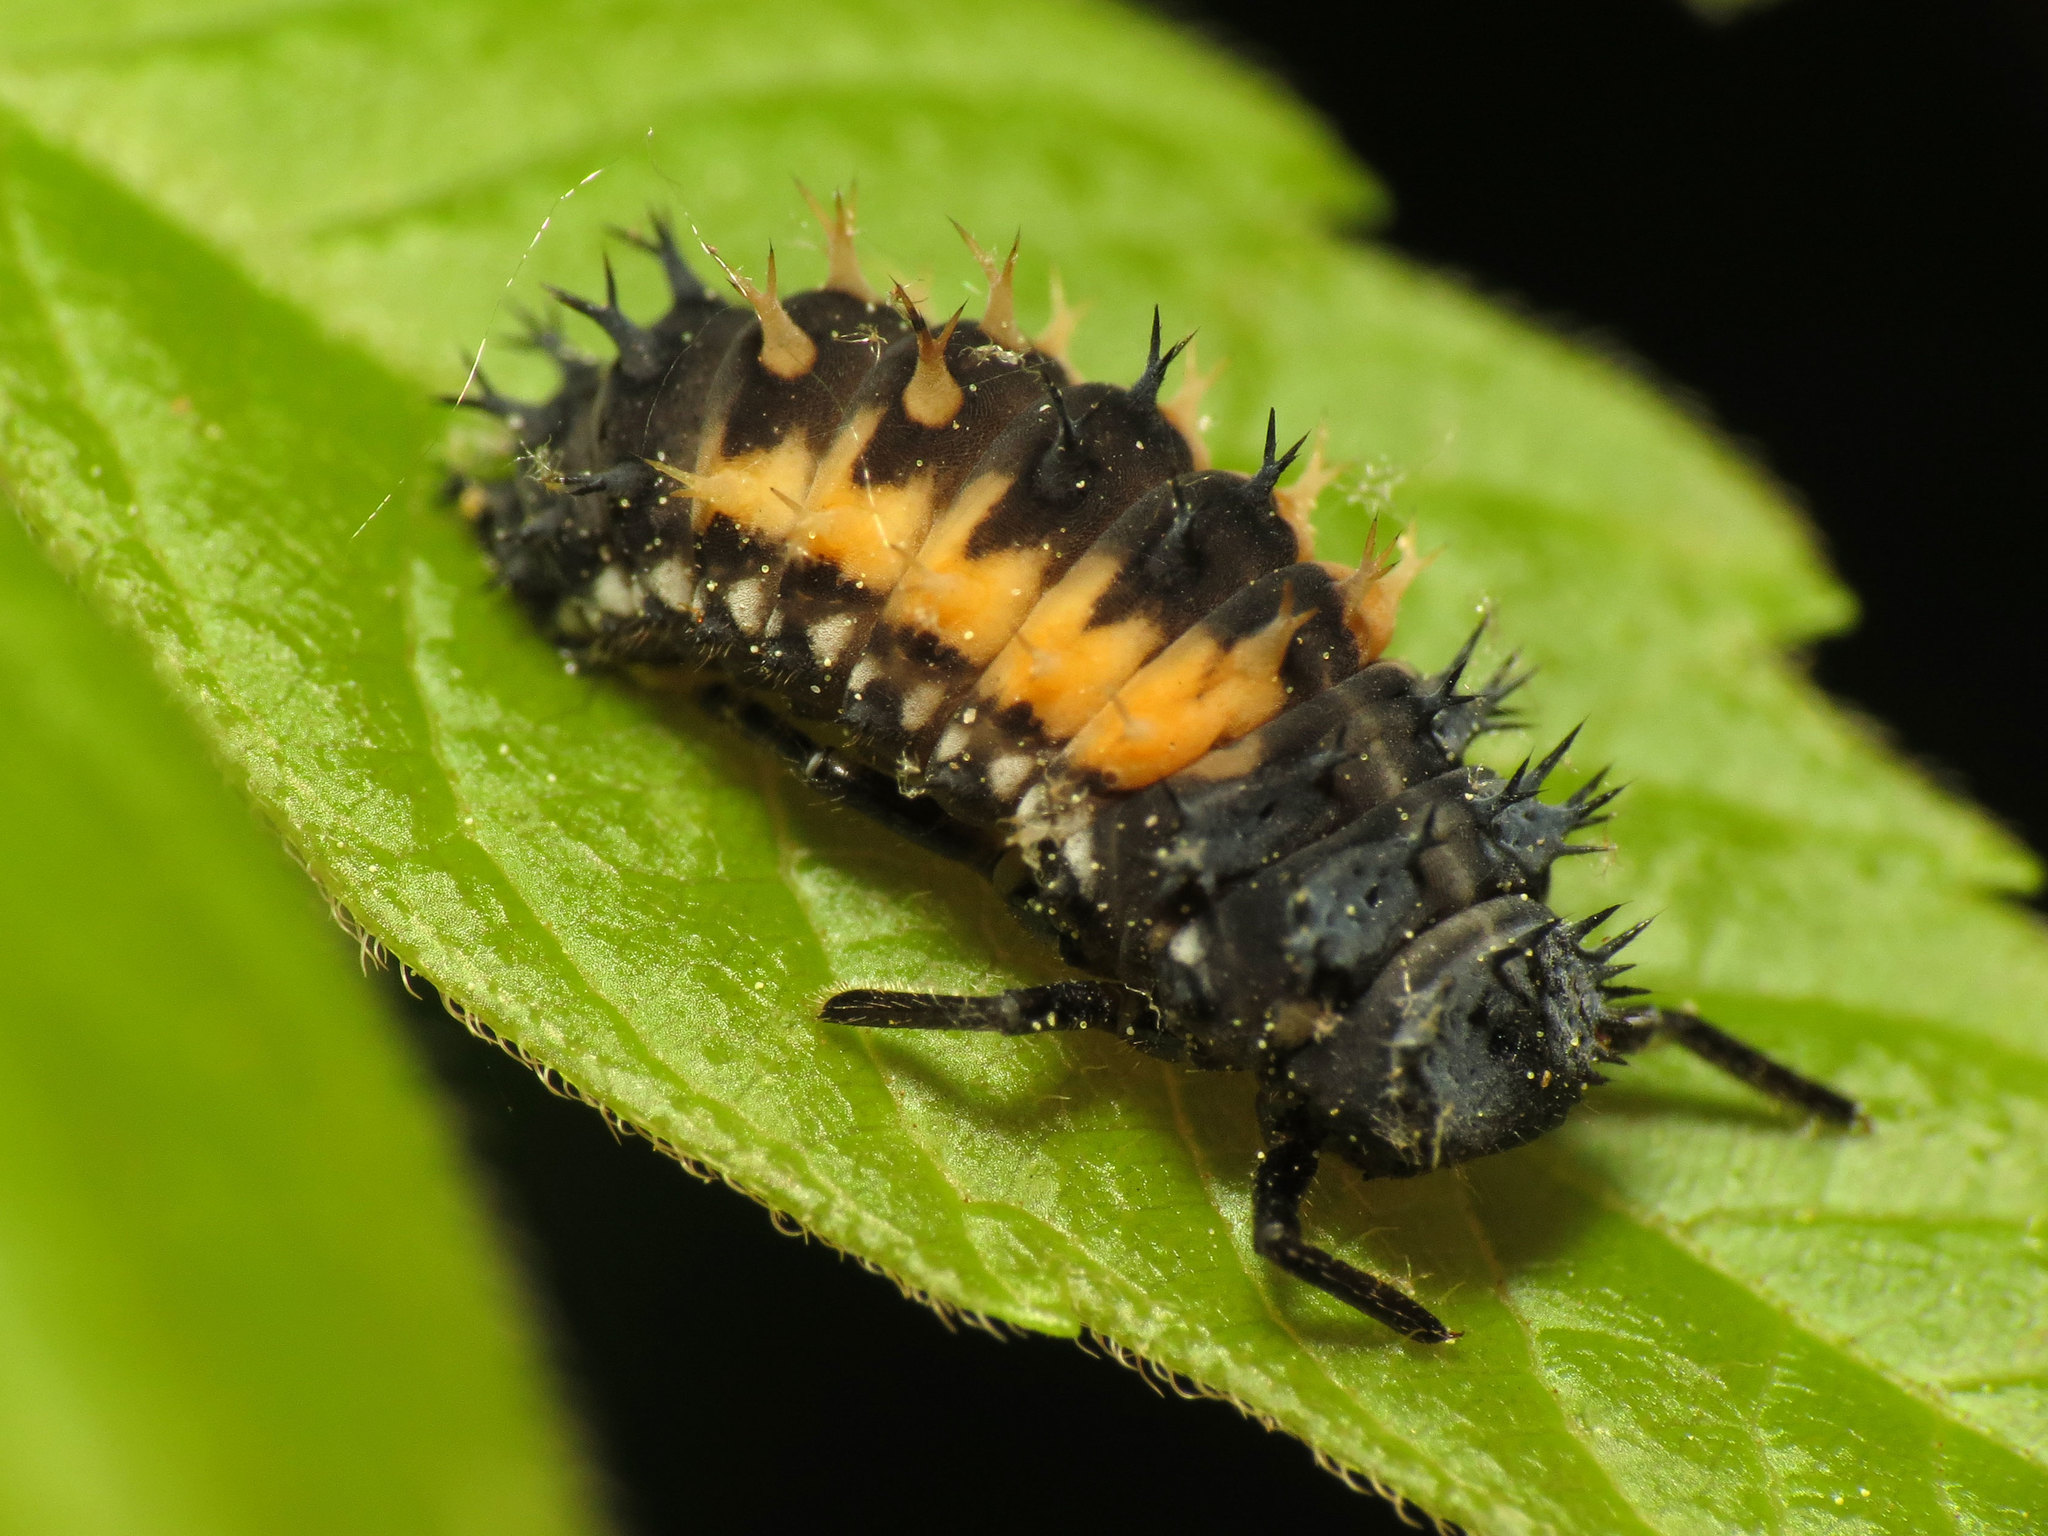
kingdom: Animalia
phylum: Arthropoda
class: Insecta
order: Coleoptera
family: Coccinellidae
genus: Harmonia
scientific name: Harmonia axyridis
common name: Harlequin ladybird
